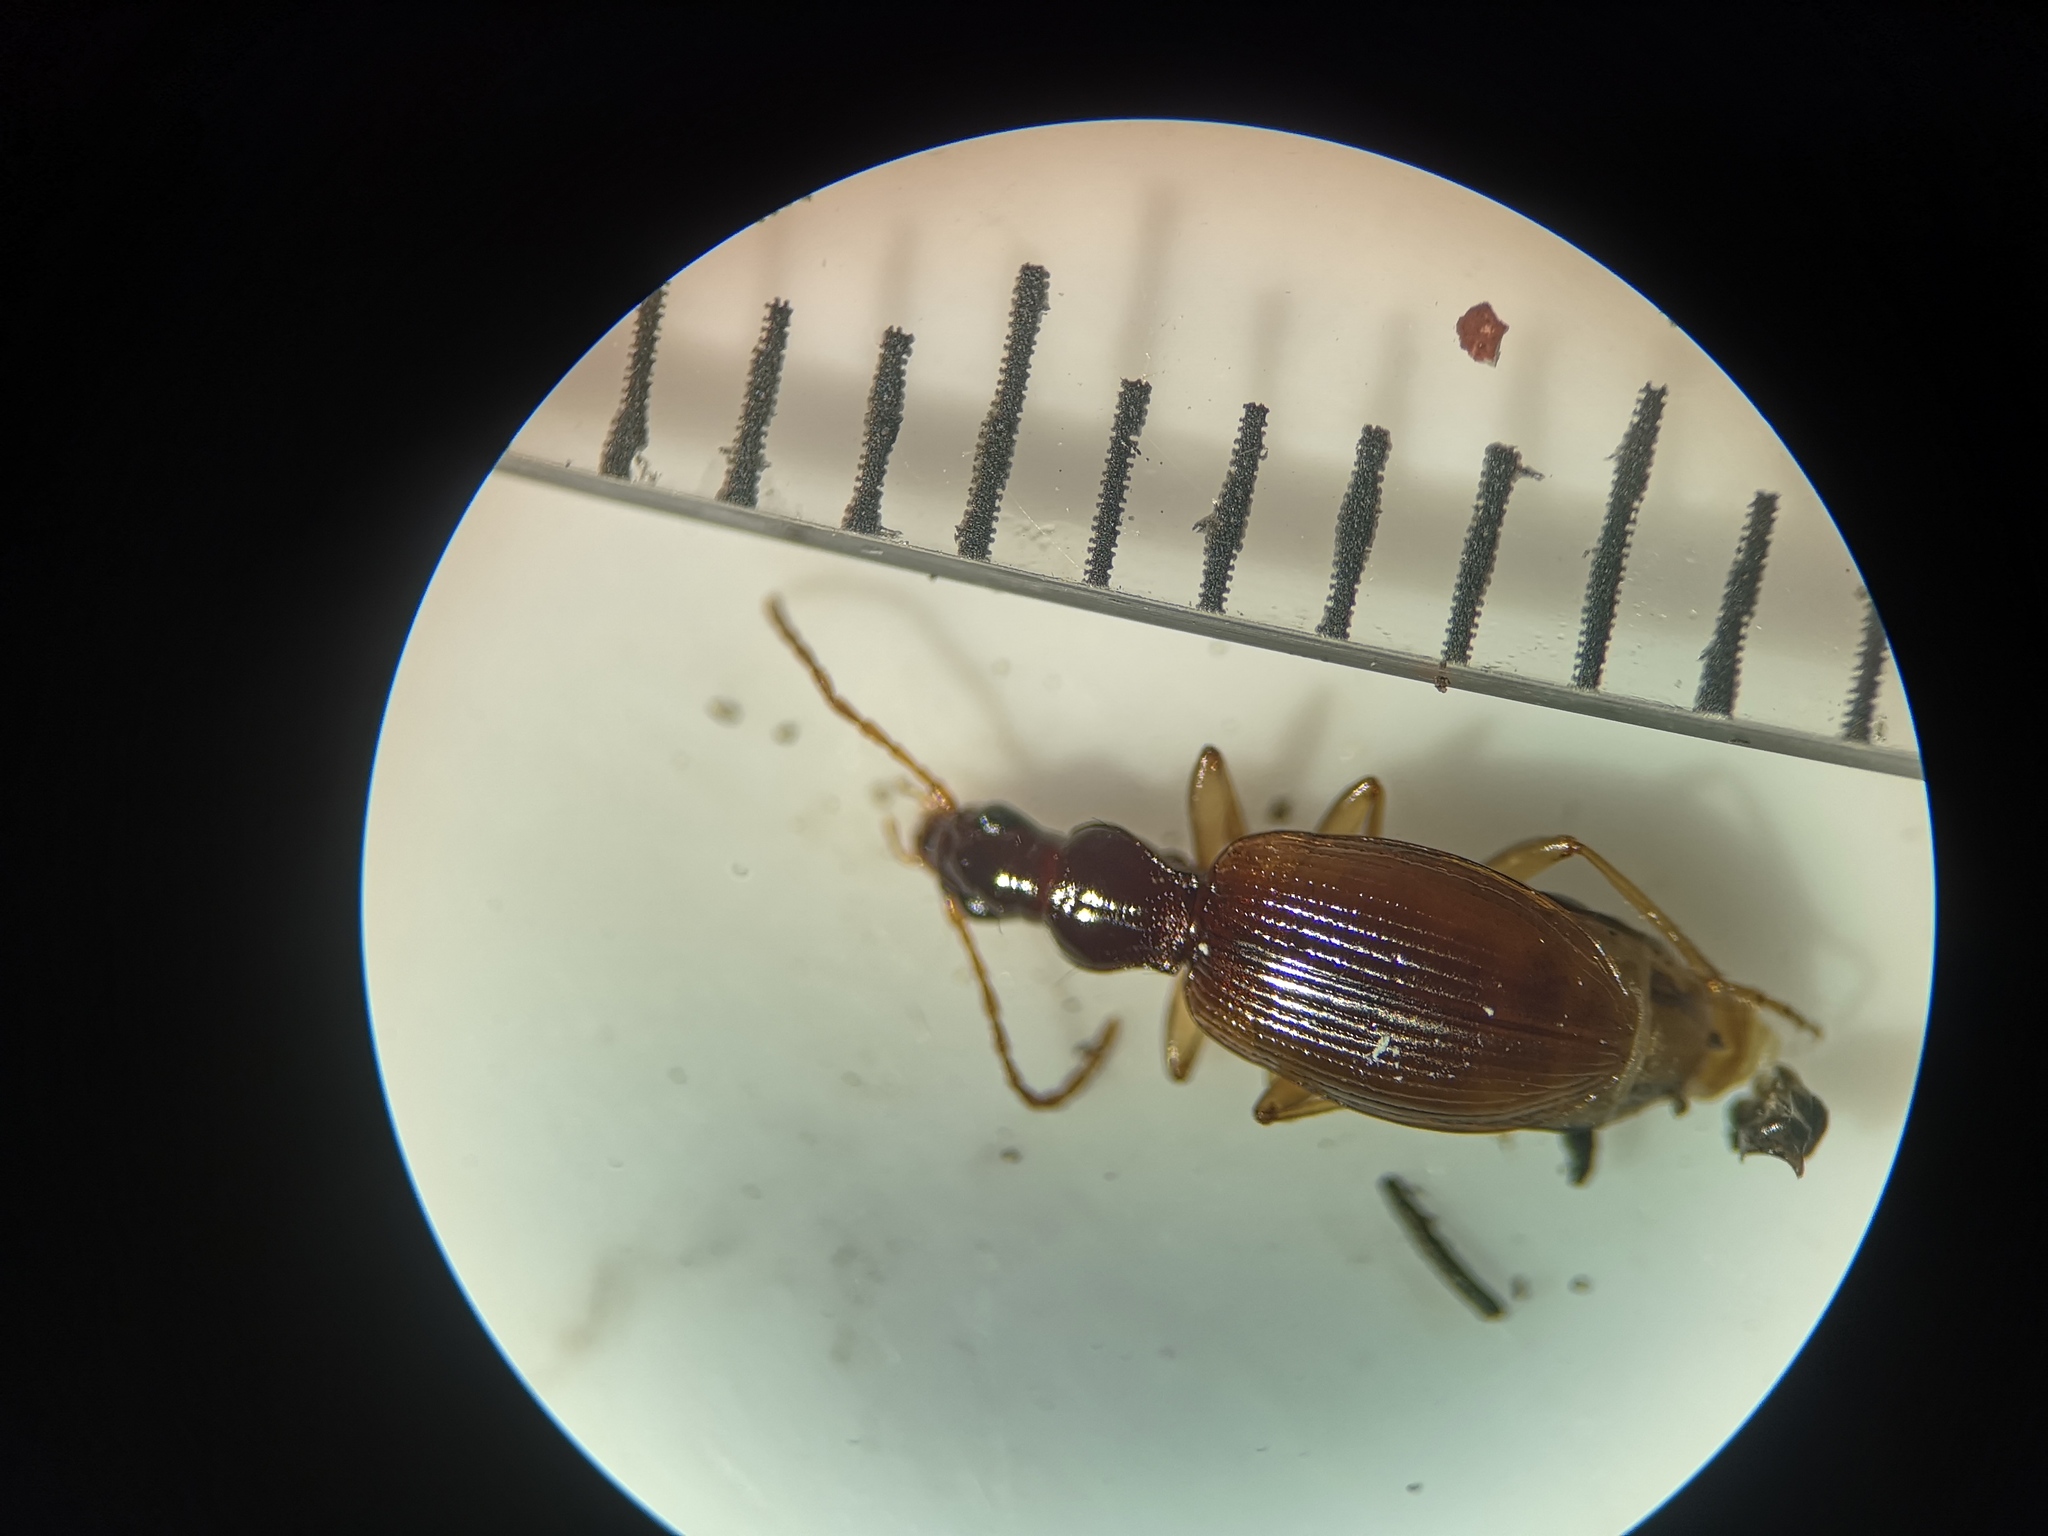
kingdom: Animalia
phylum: Arthropoda
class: Insecta
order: Coleoptera
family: Carabidae
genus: Oxypselaphus
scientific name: Oxypselaphus obscurus
